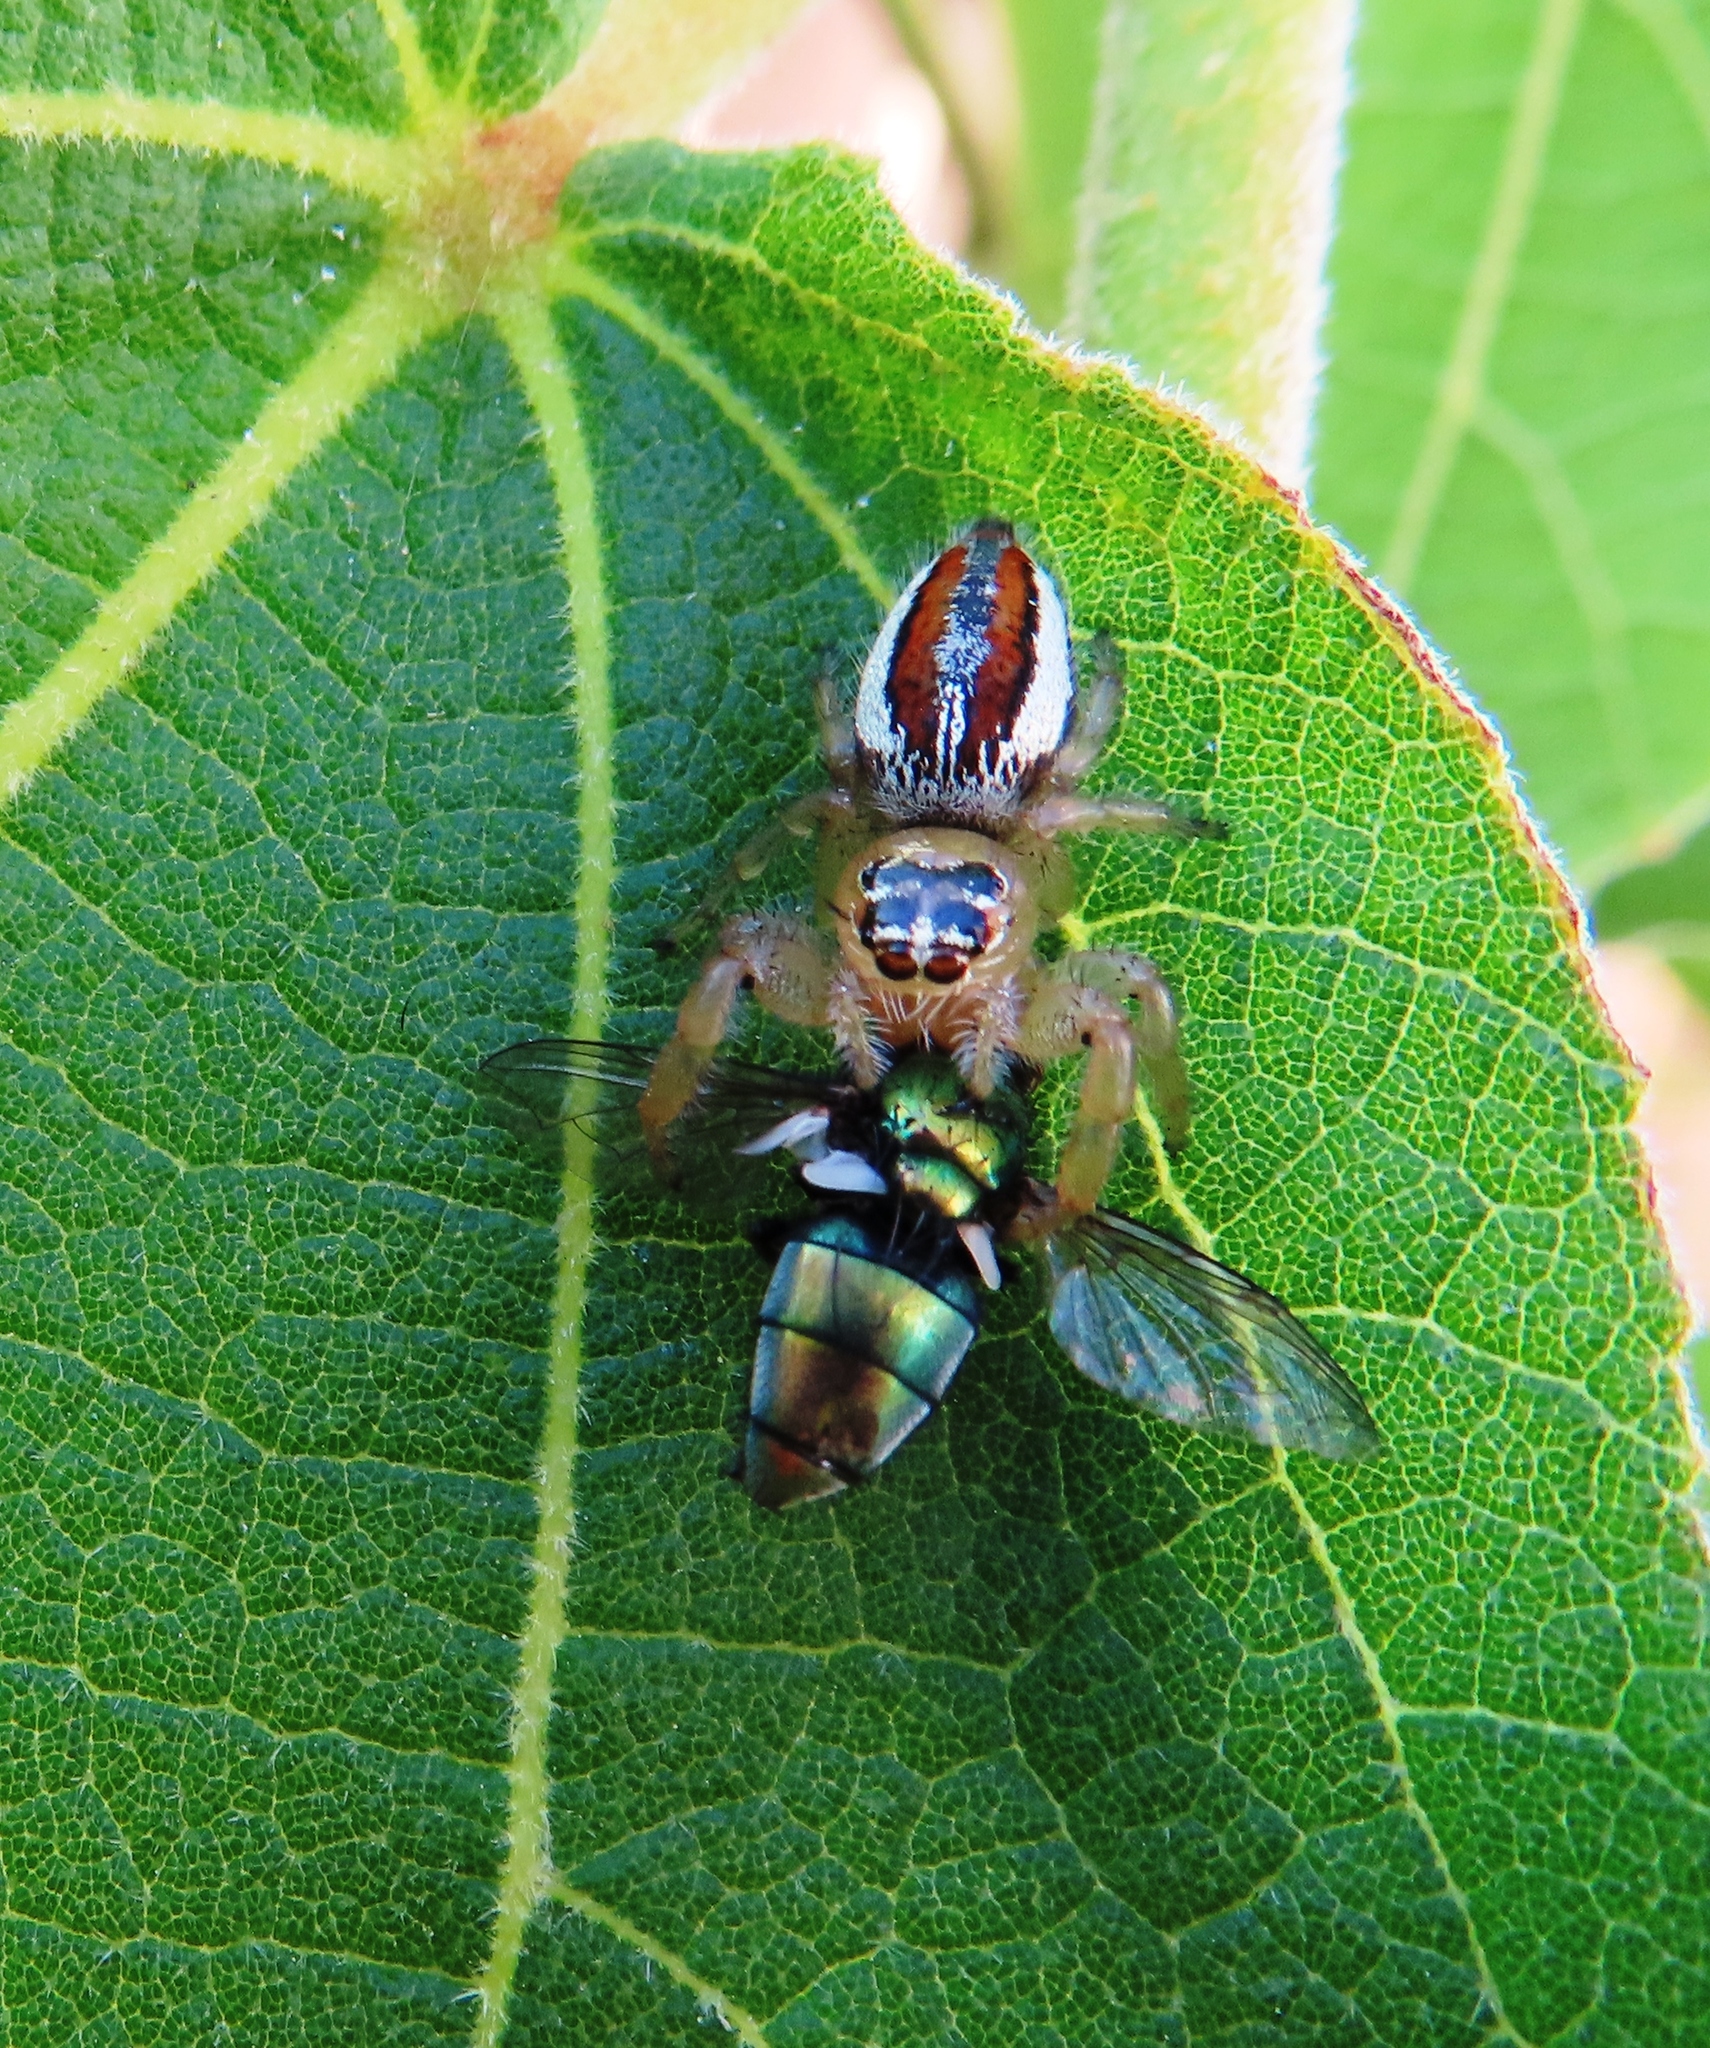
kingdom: Animalia
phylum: Arthropoda
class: Arachnida
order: Araneae
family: Salticidae
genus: Thyene
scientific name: Thyene inflata
